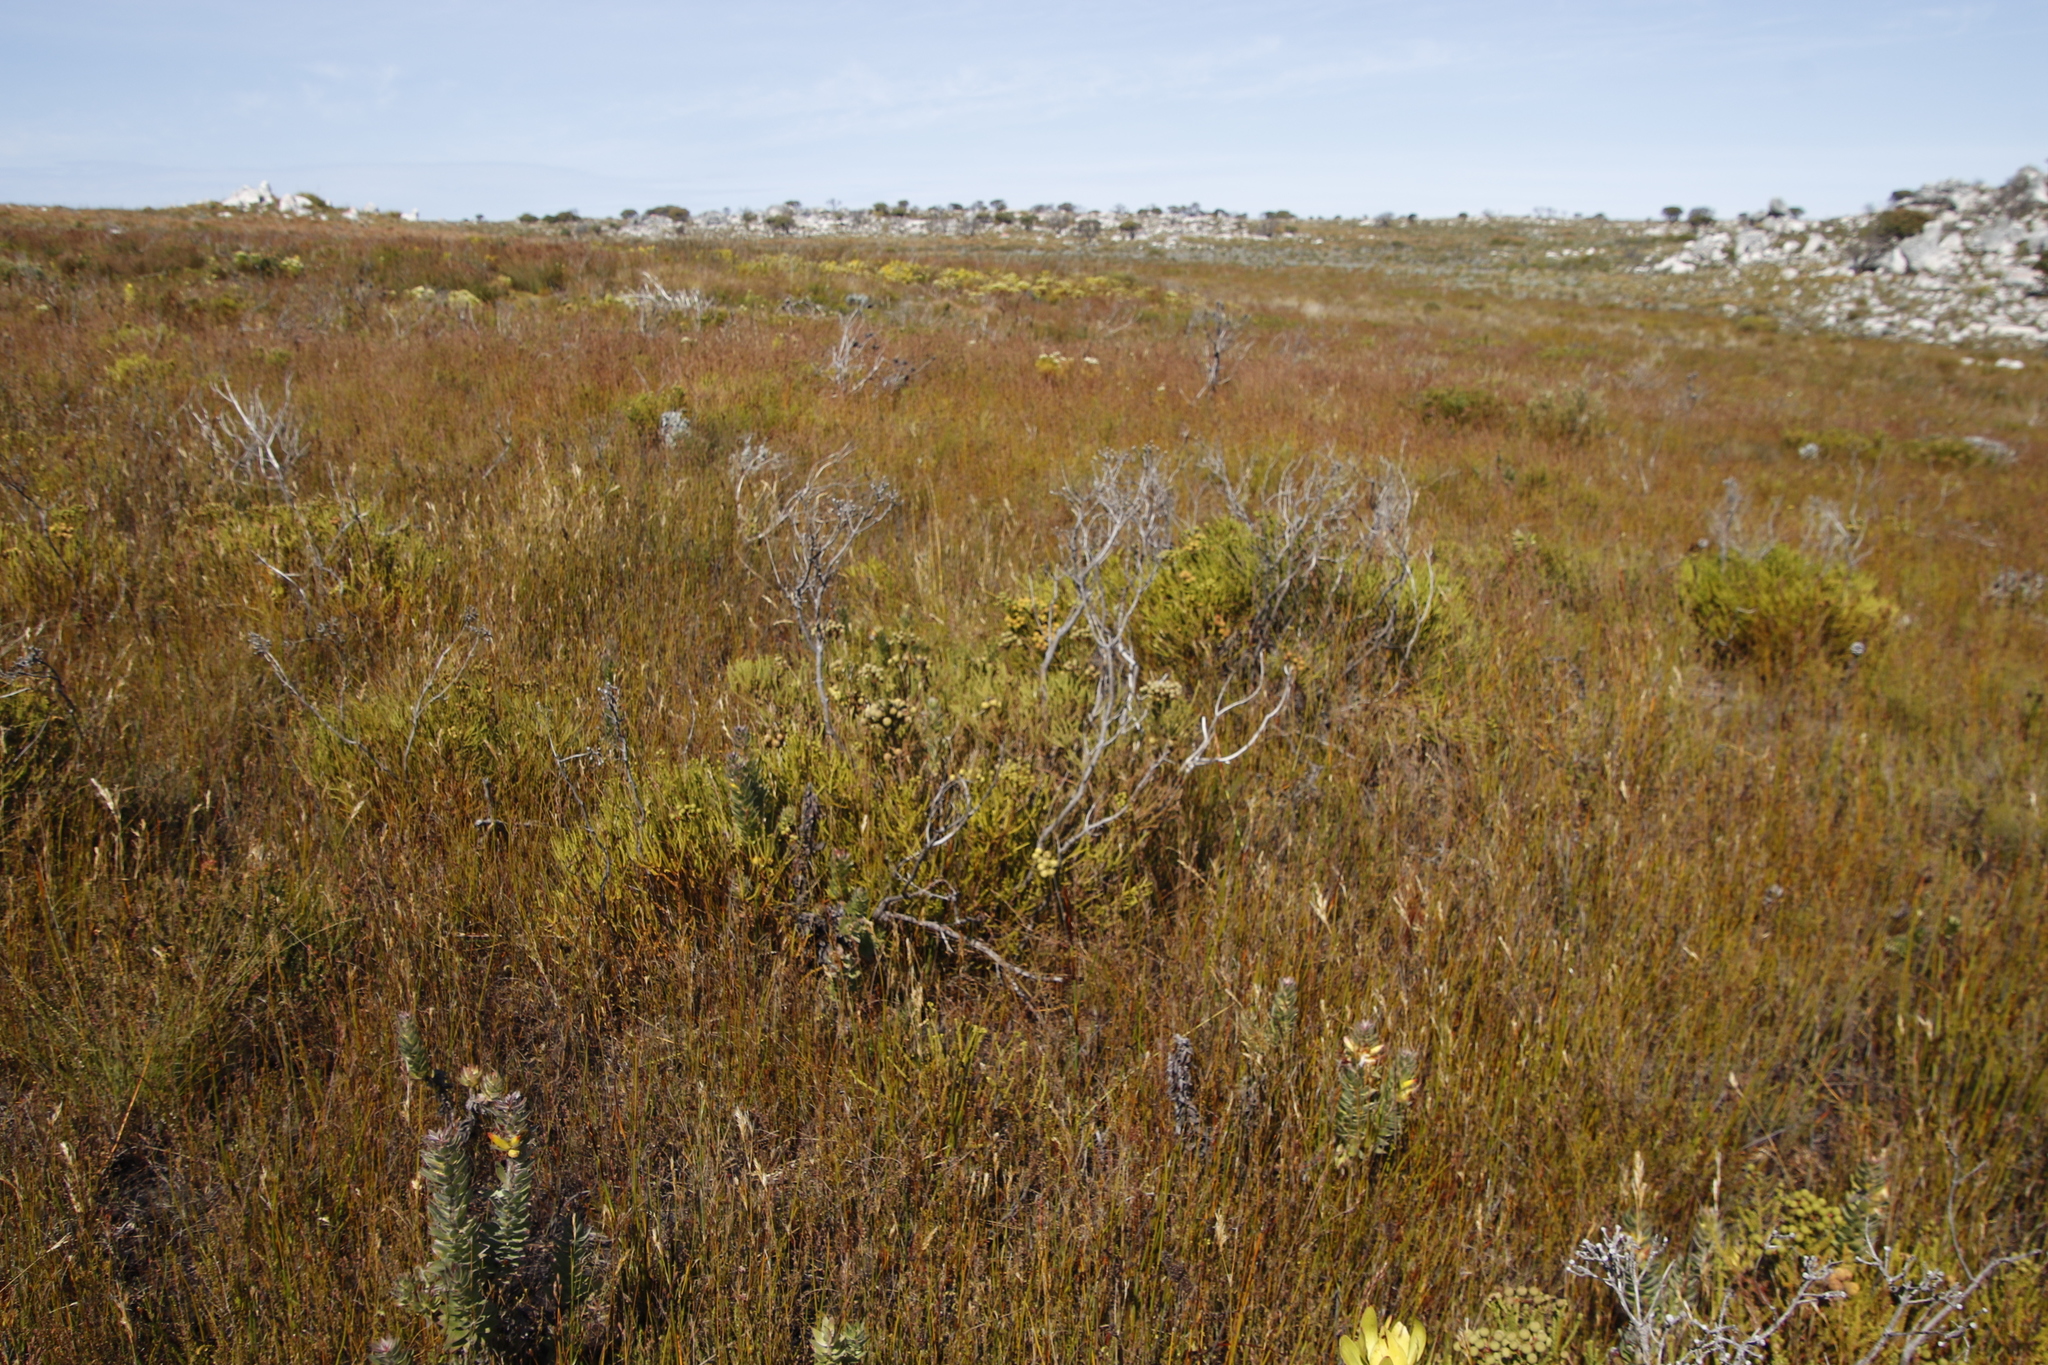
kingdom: Plantae
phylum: Tracheophyta
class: Magnoliopsida
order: Bruniales
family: Bruniaceae
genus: Berzelia
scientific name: Berzelia abrotanoides
